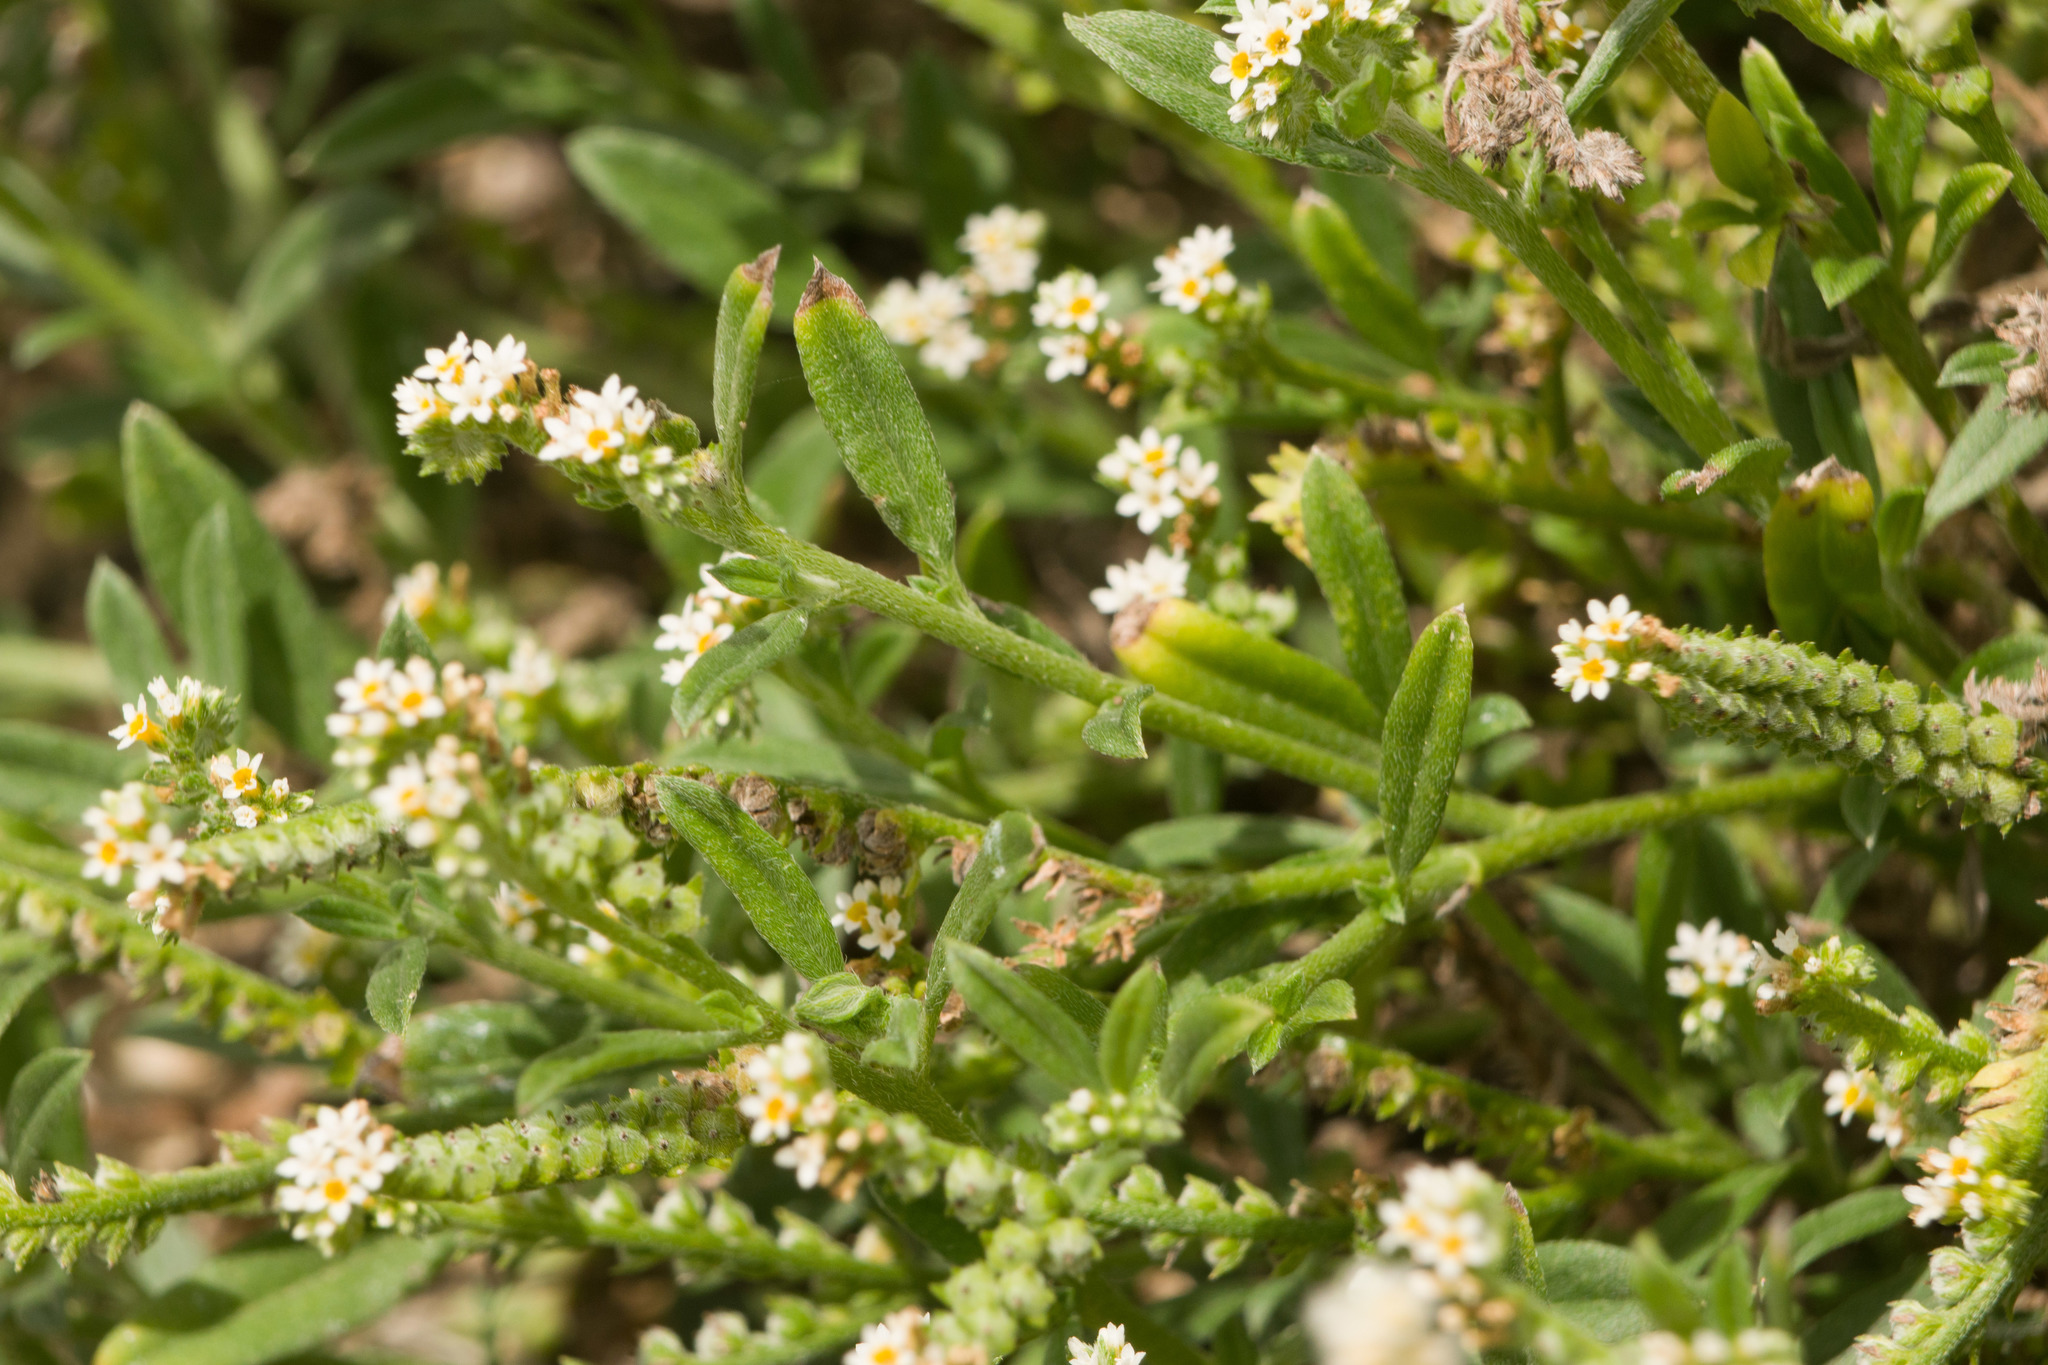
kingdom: Plantae
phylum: Tracheophyta
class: Magnoliopsida
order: Boraginales
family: Heliotropiaceae
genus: Euploca
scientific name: Euploca procumbens
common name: Fourspike heliotrope
